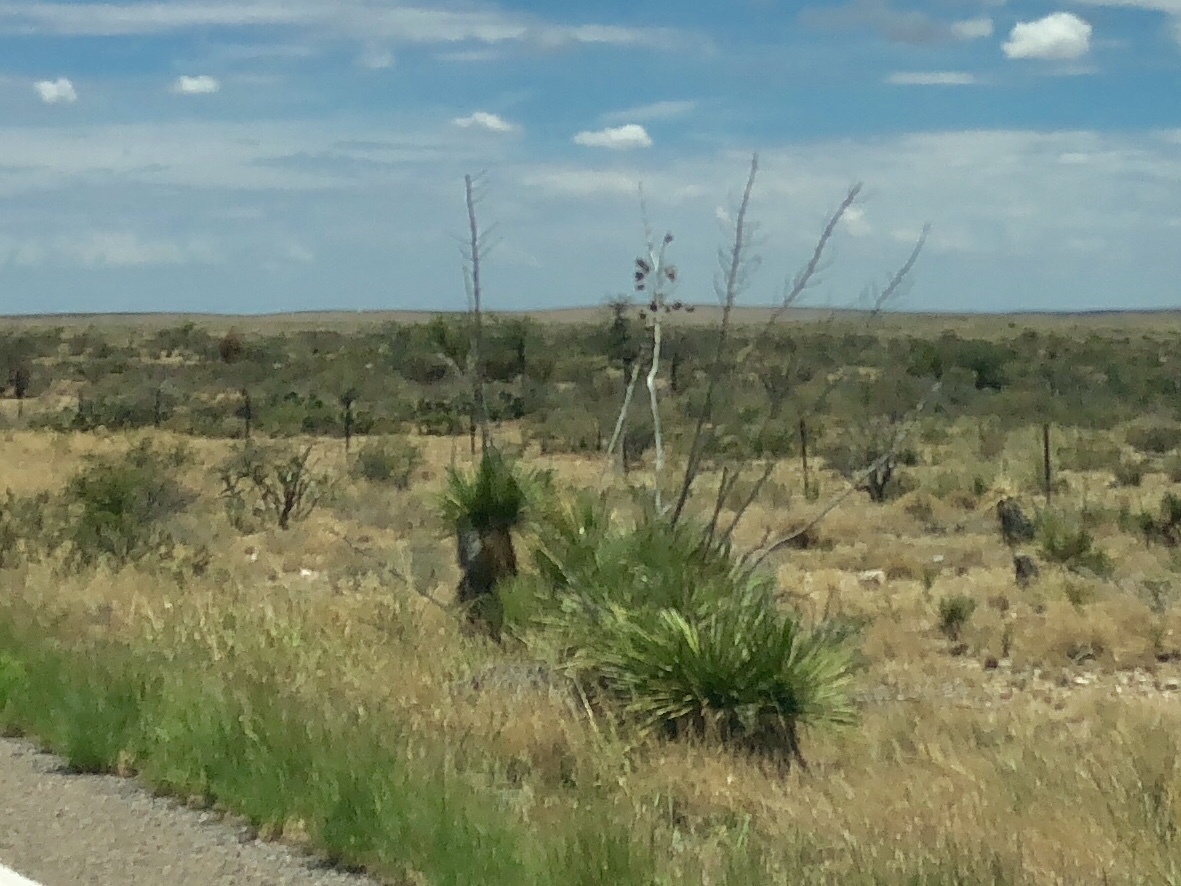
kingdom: Plantae
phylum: Tracheophyta
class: Liliopsida
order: Asparagales
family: Asparagaceae
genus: Yucca
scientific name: Yucca elata
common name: Palmella
